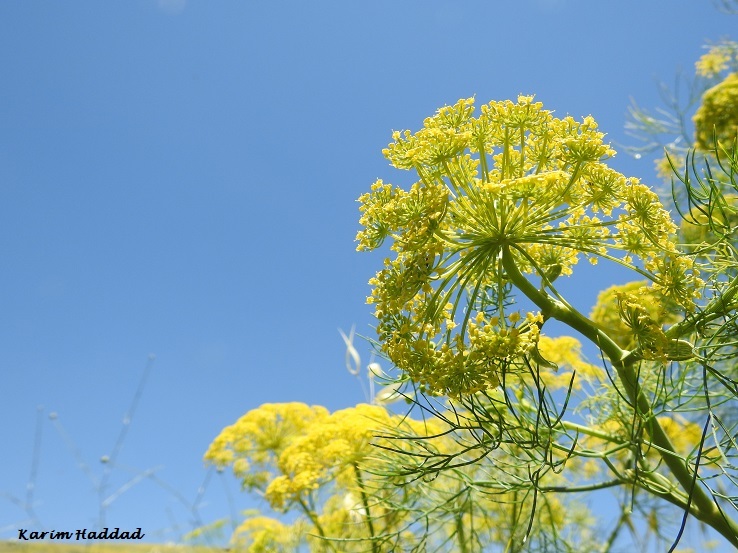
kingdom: Plantae
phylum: Tracheophyta
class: Magnoliopsida
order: Apiales
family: Apiaceae
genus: Anethum
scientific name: Anethum ridolfia
